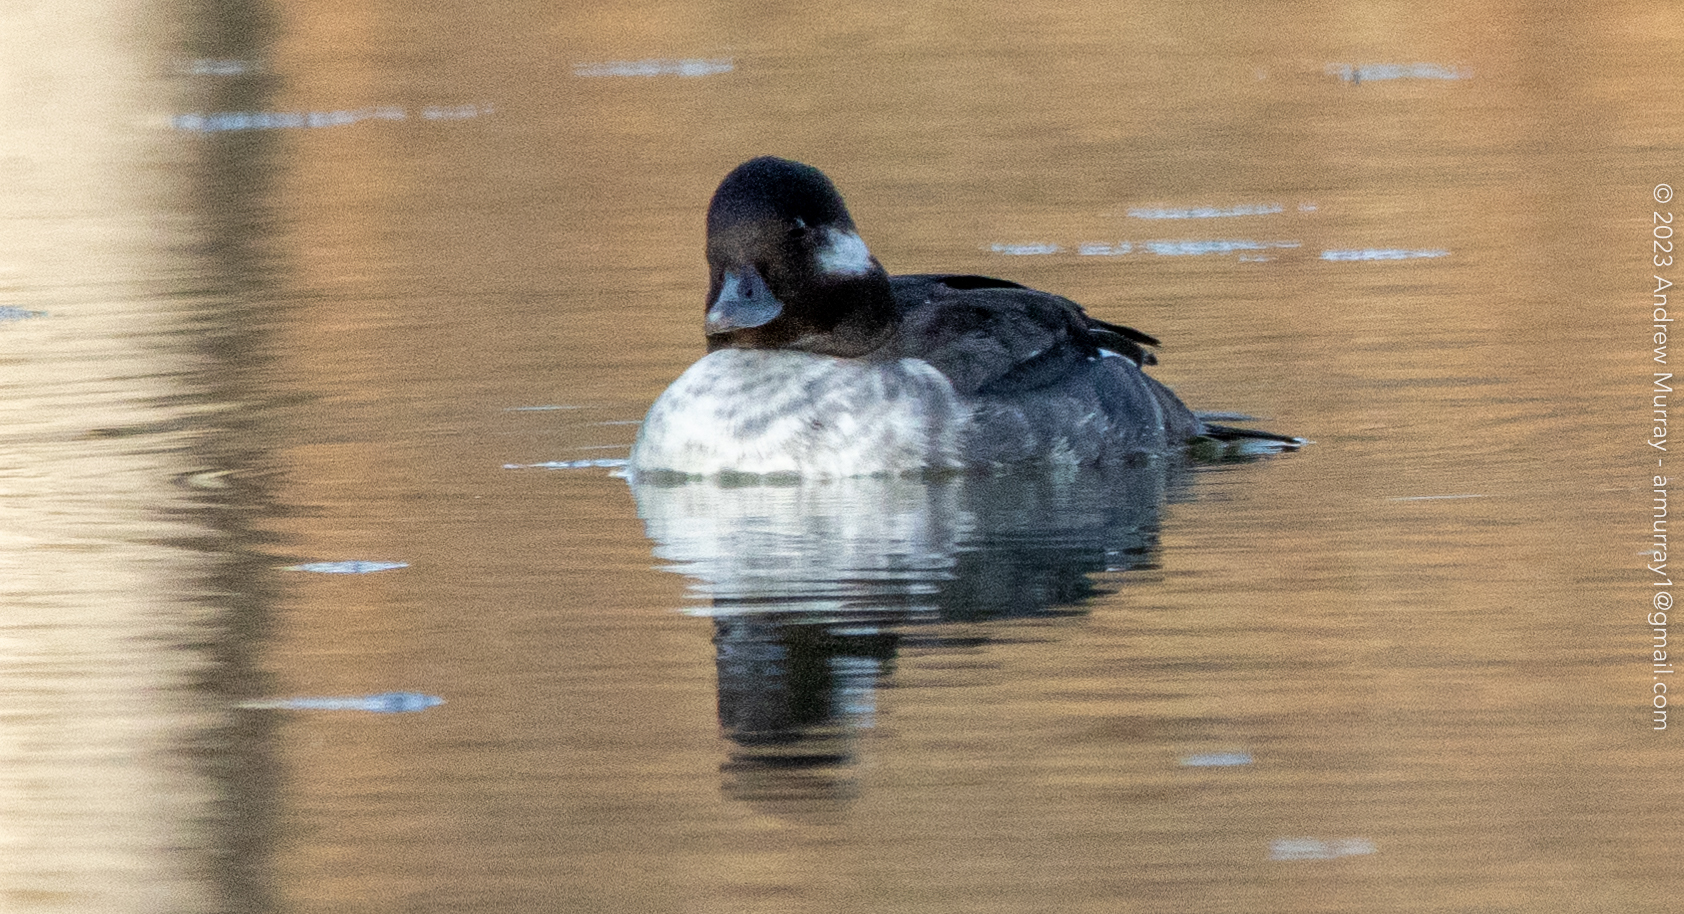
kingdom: Animalia
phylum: Chordata
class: Aves
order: Anseriformes
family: Anatidae
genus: Bucephala
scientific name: Bucephala albeola
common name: Bufflehead
